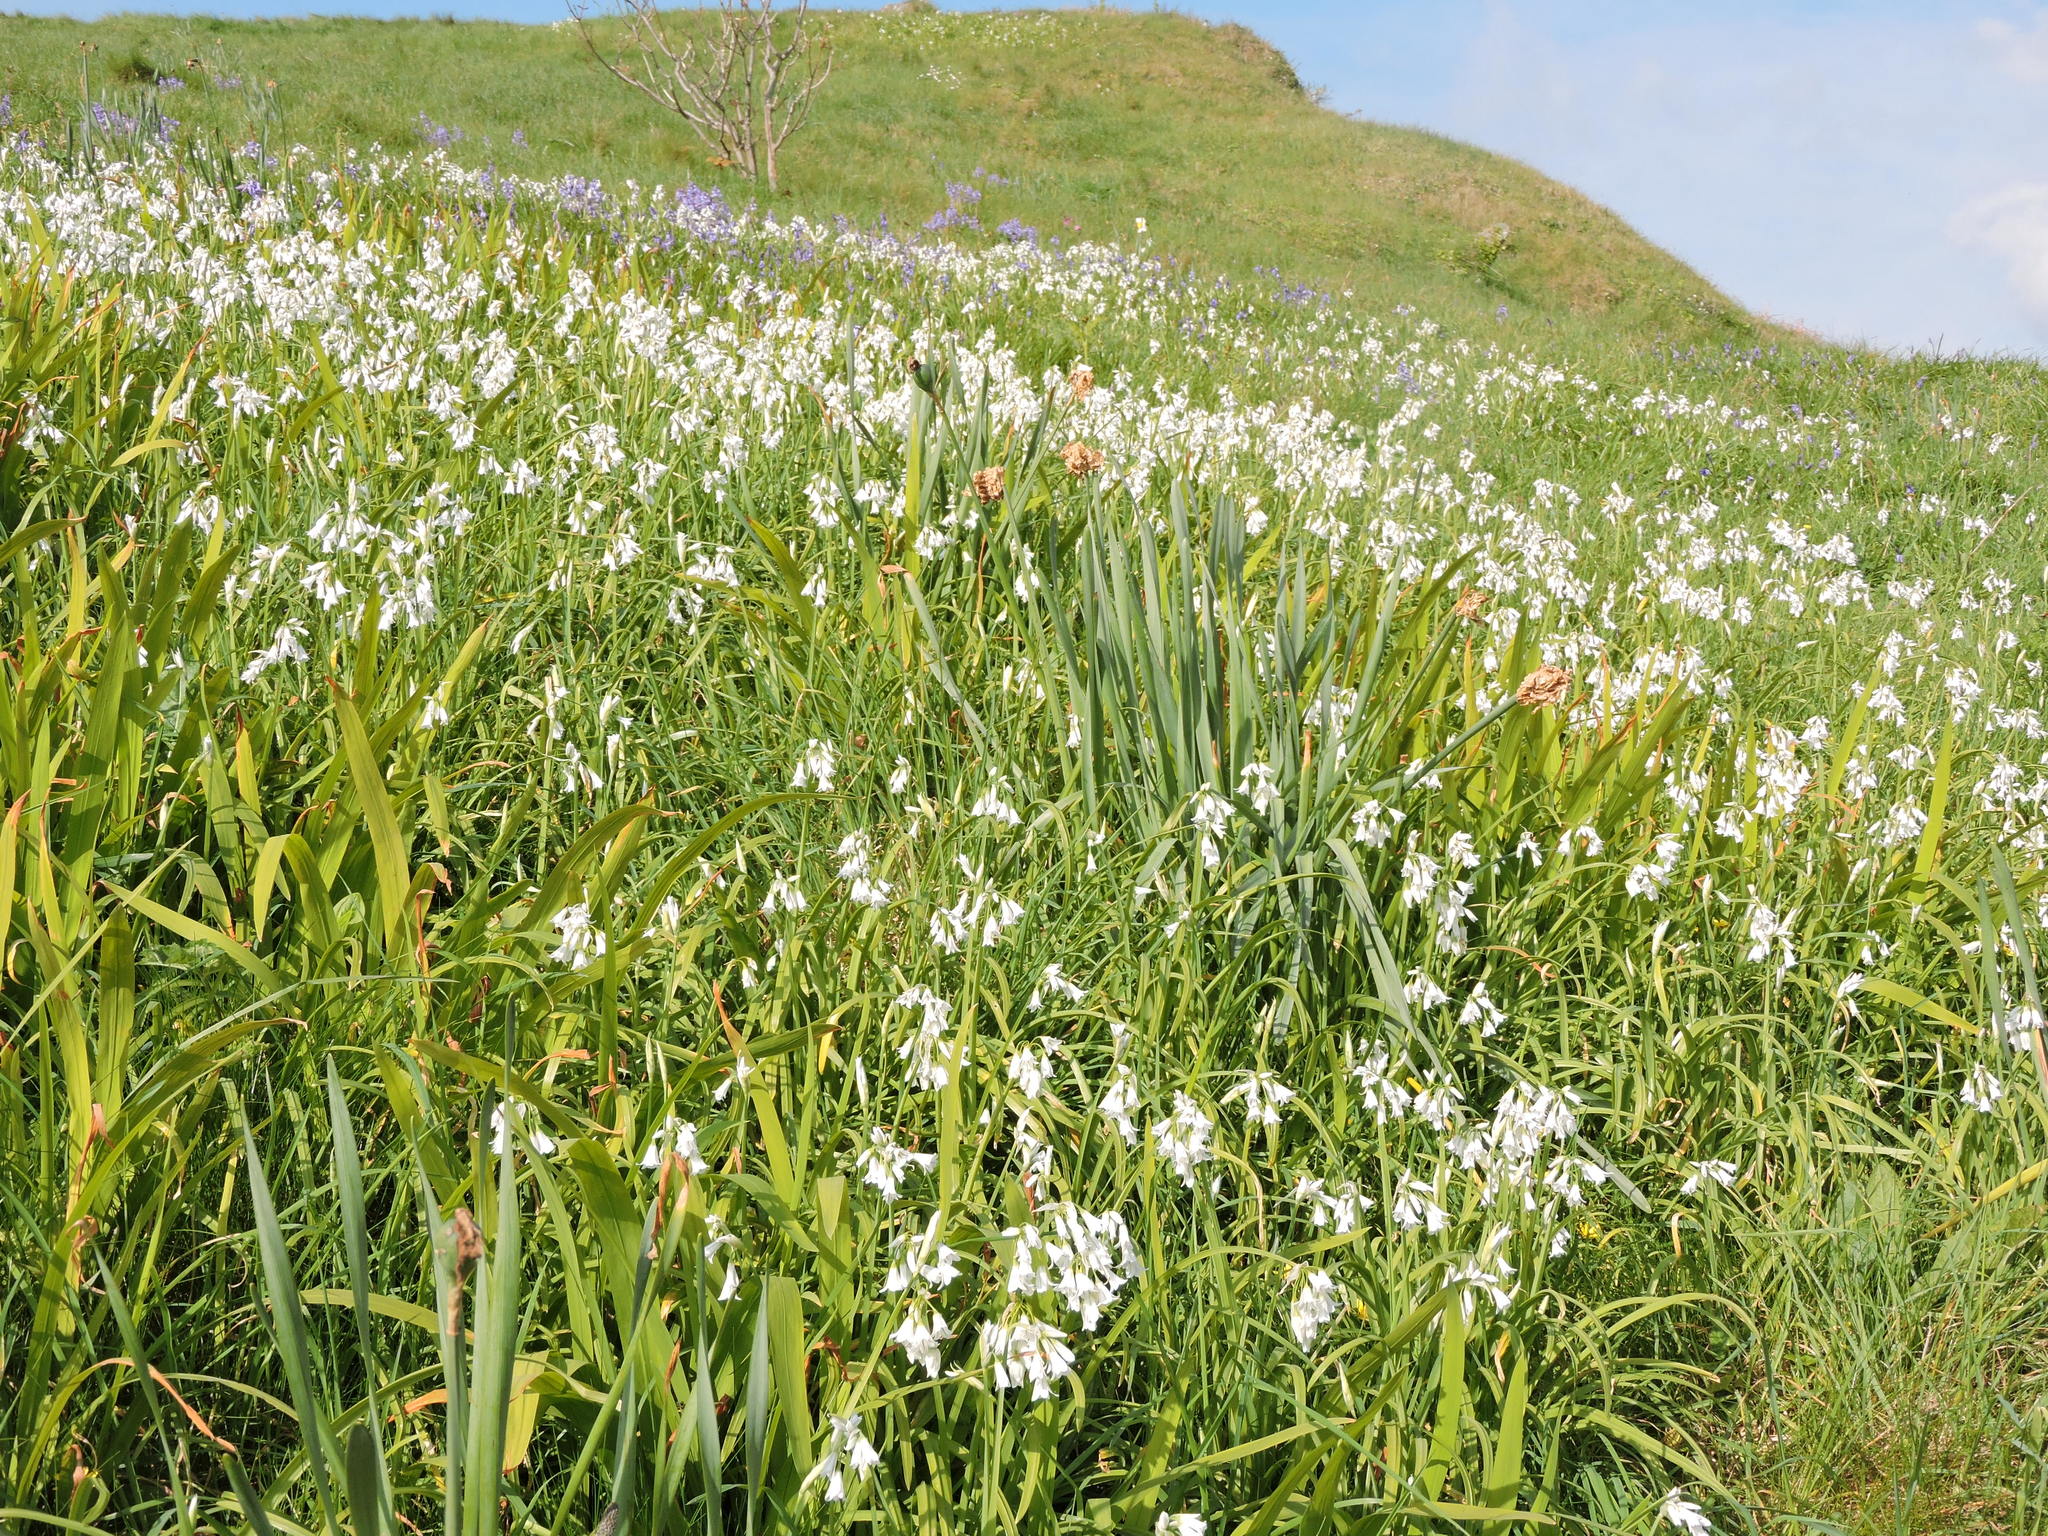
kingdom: Plantae
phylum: Tracheophyta
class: Liliopsida
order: Asparagales
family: Amaryllidaceae
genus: Allium
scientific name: Allium triquetrum
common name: Three-cornered garlic
